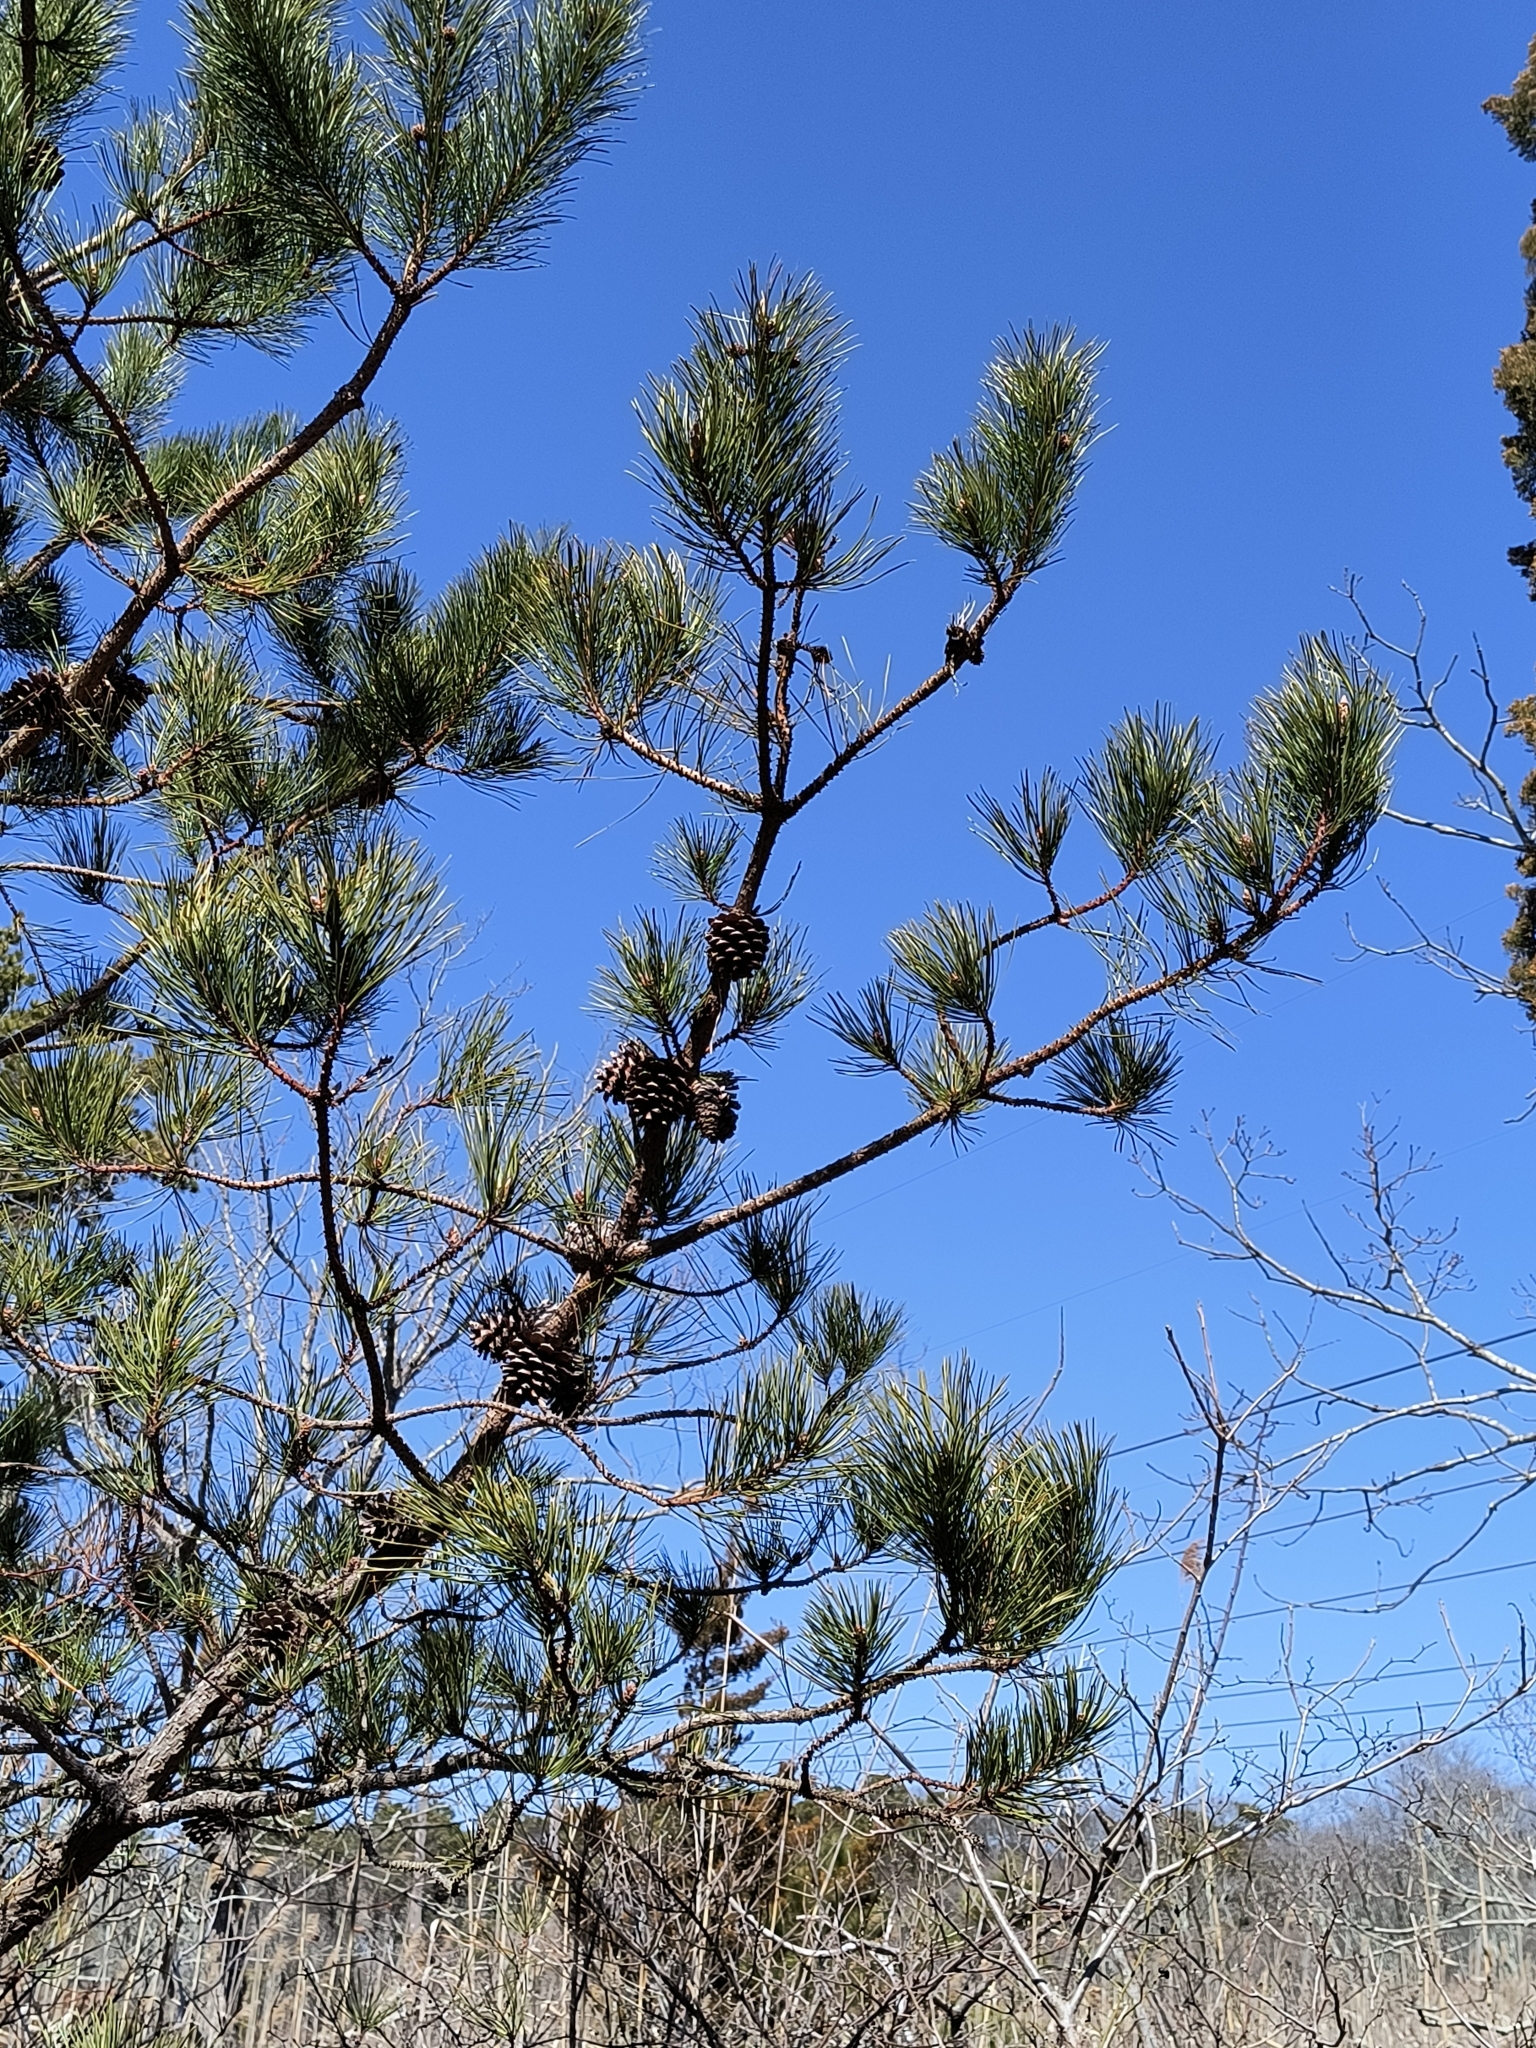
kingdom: Plantae
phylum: Tracheophyta
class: Pinopsida
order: Pinales
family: Pinaceae
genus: Pinus
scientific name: Pinus rigida
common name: Pitch pine
